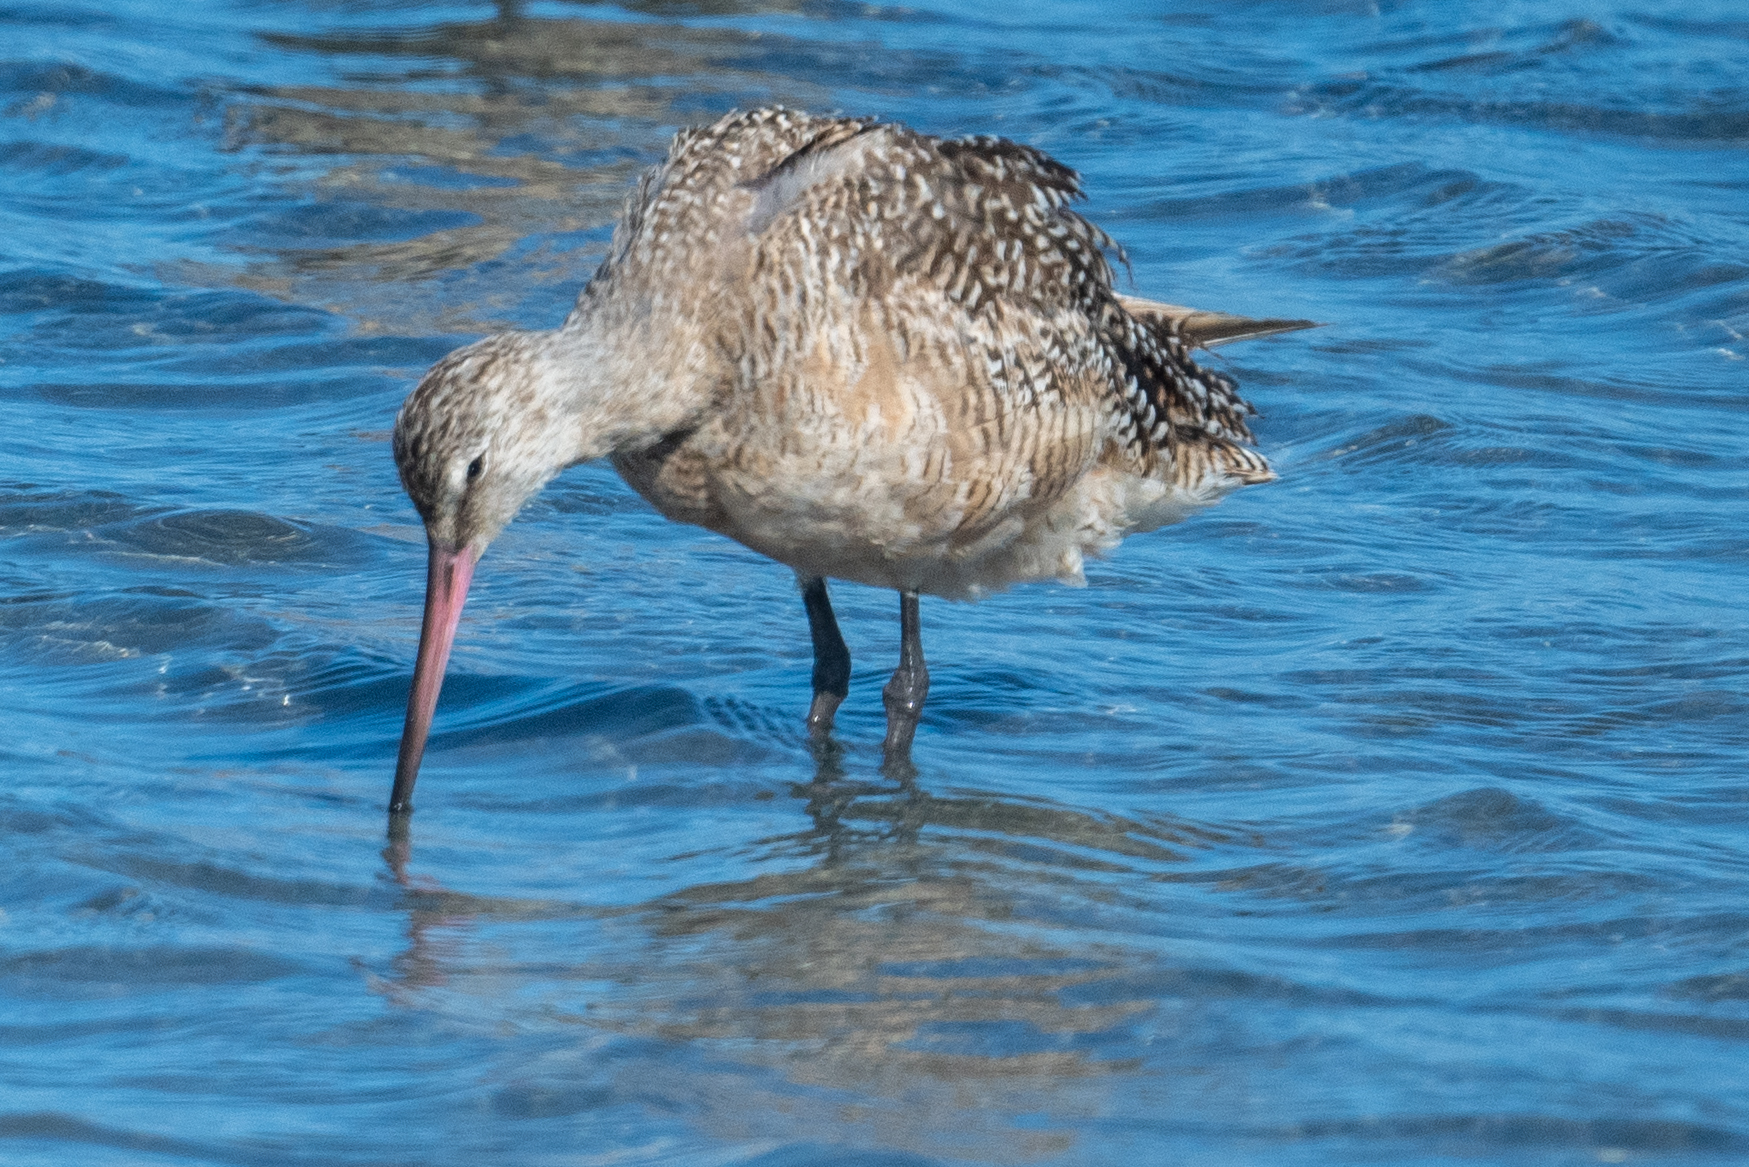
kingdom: Animalia
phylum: Chordata
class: Aves
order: Charadriiformes
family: Scolopacidae
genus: Limosa
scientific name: Limosa fedoa
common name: Marbled godwit
